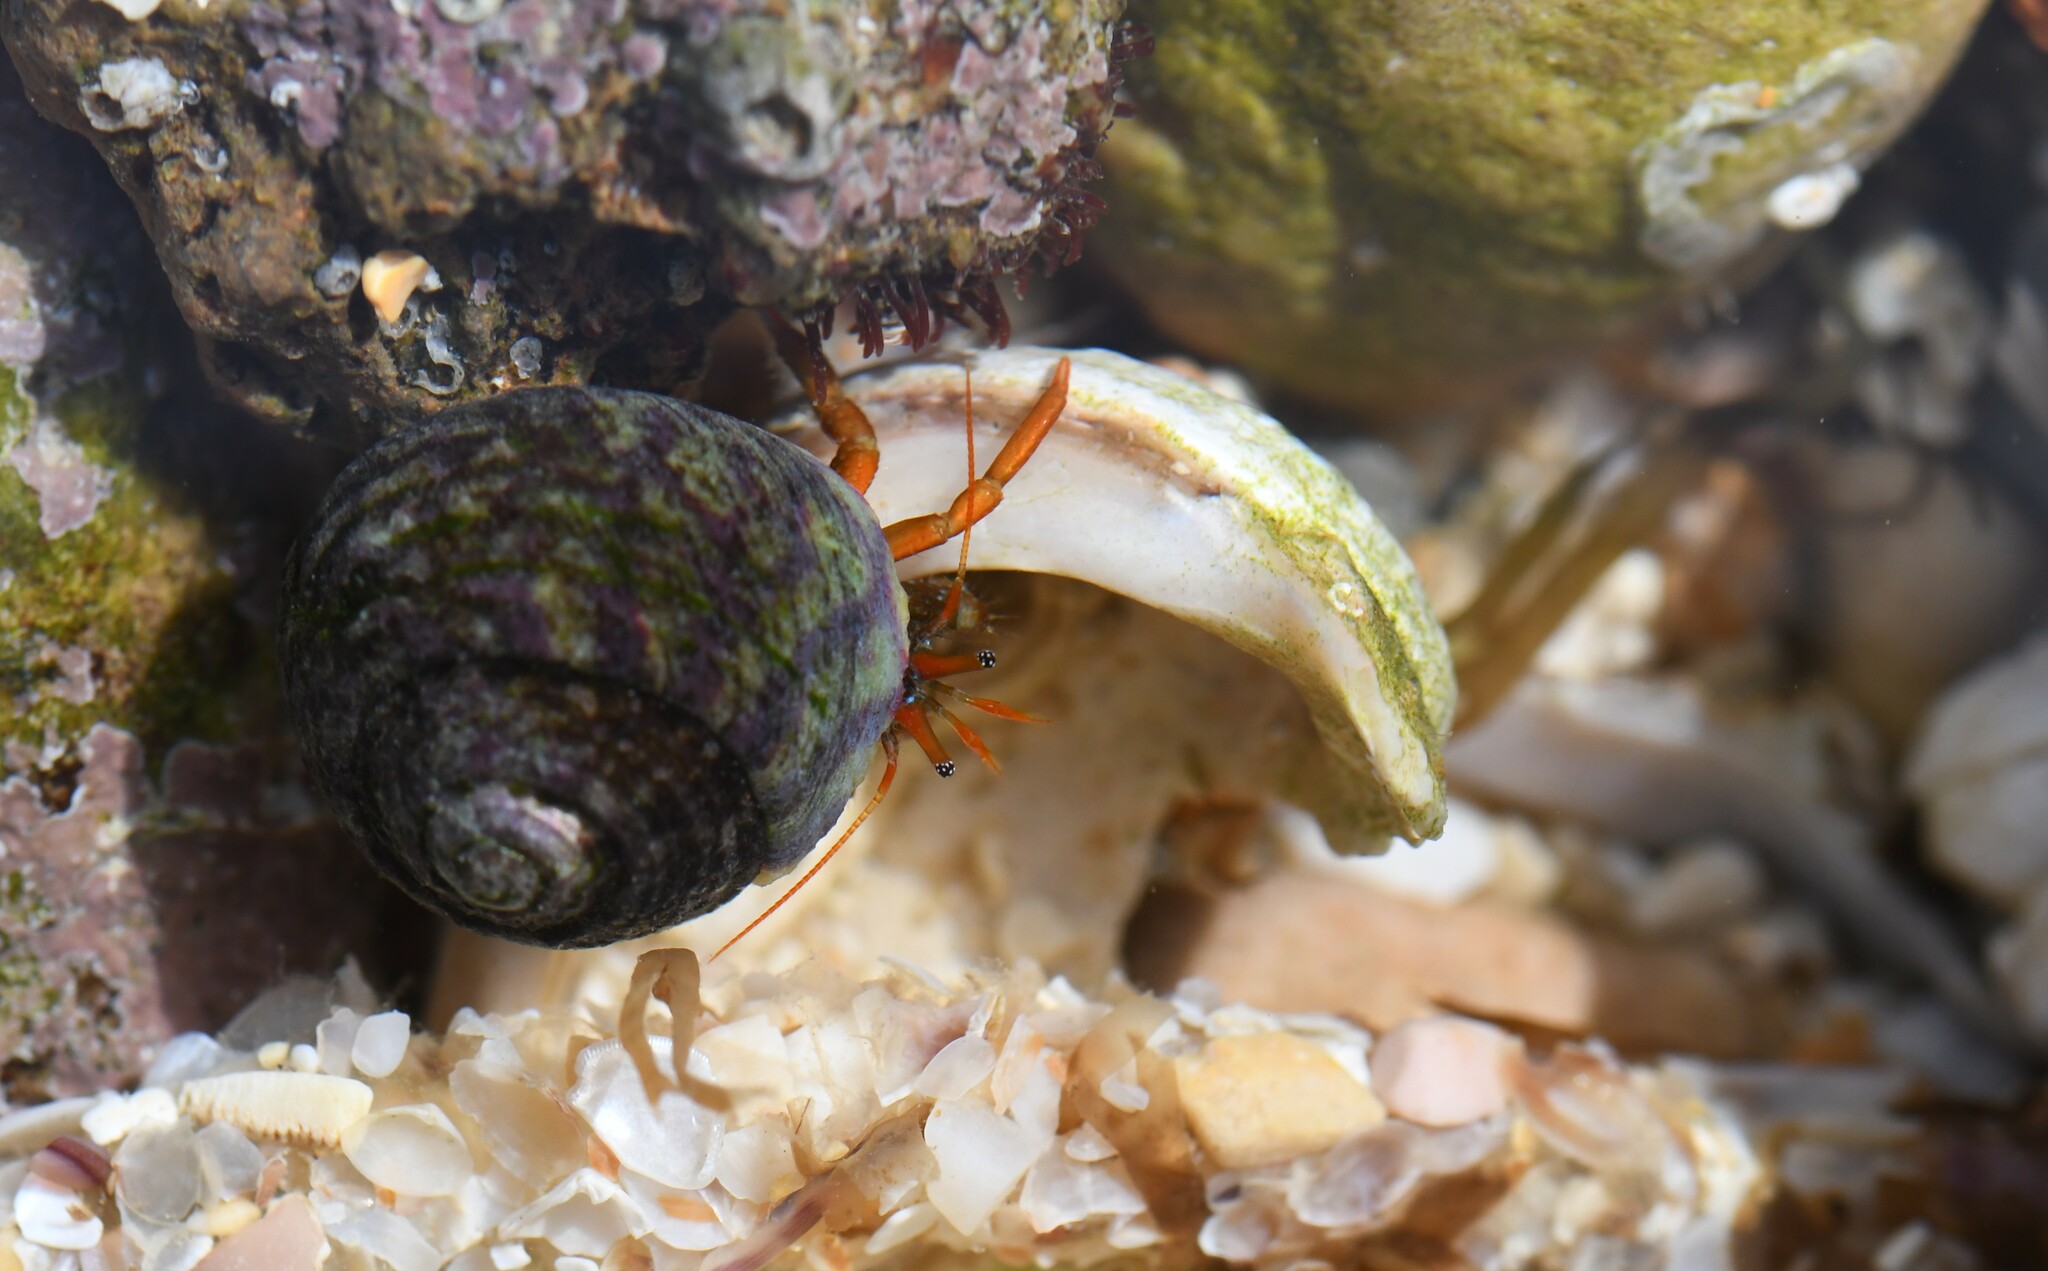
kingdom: Animalia
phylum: Arthropoda
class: Malacostraca
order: Decapoda
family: Diogenidae
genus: Clibanarius
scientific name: Clibanarius erythropus
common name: Hermit crab
